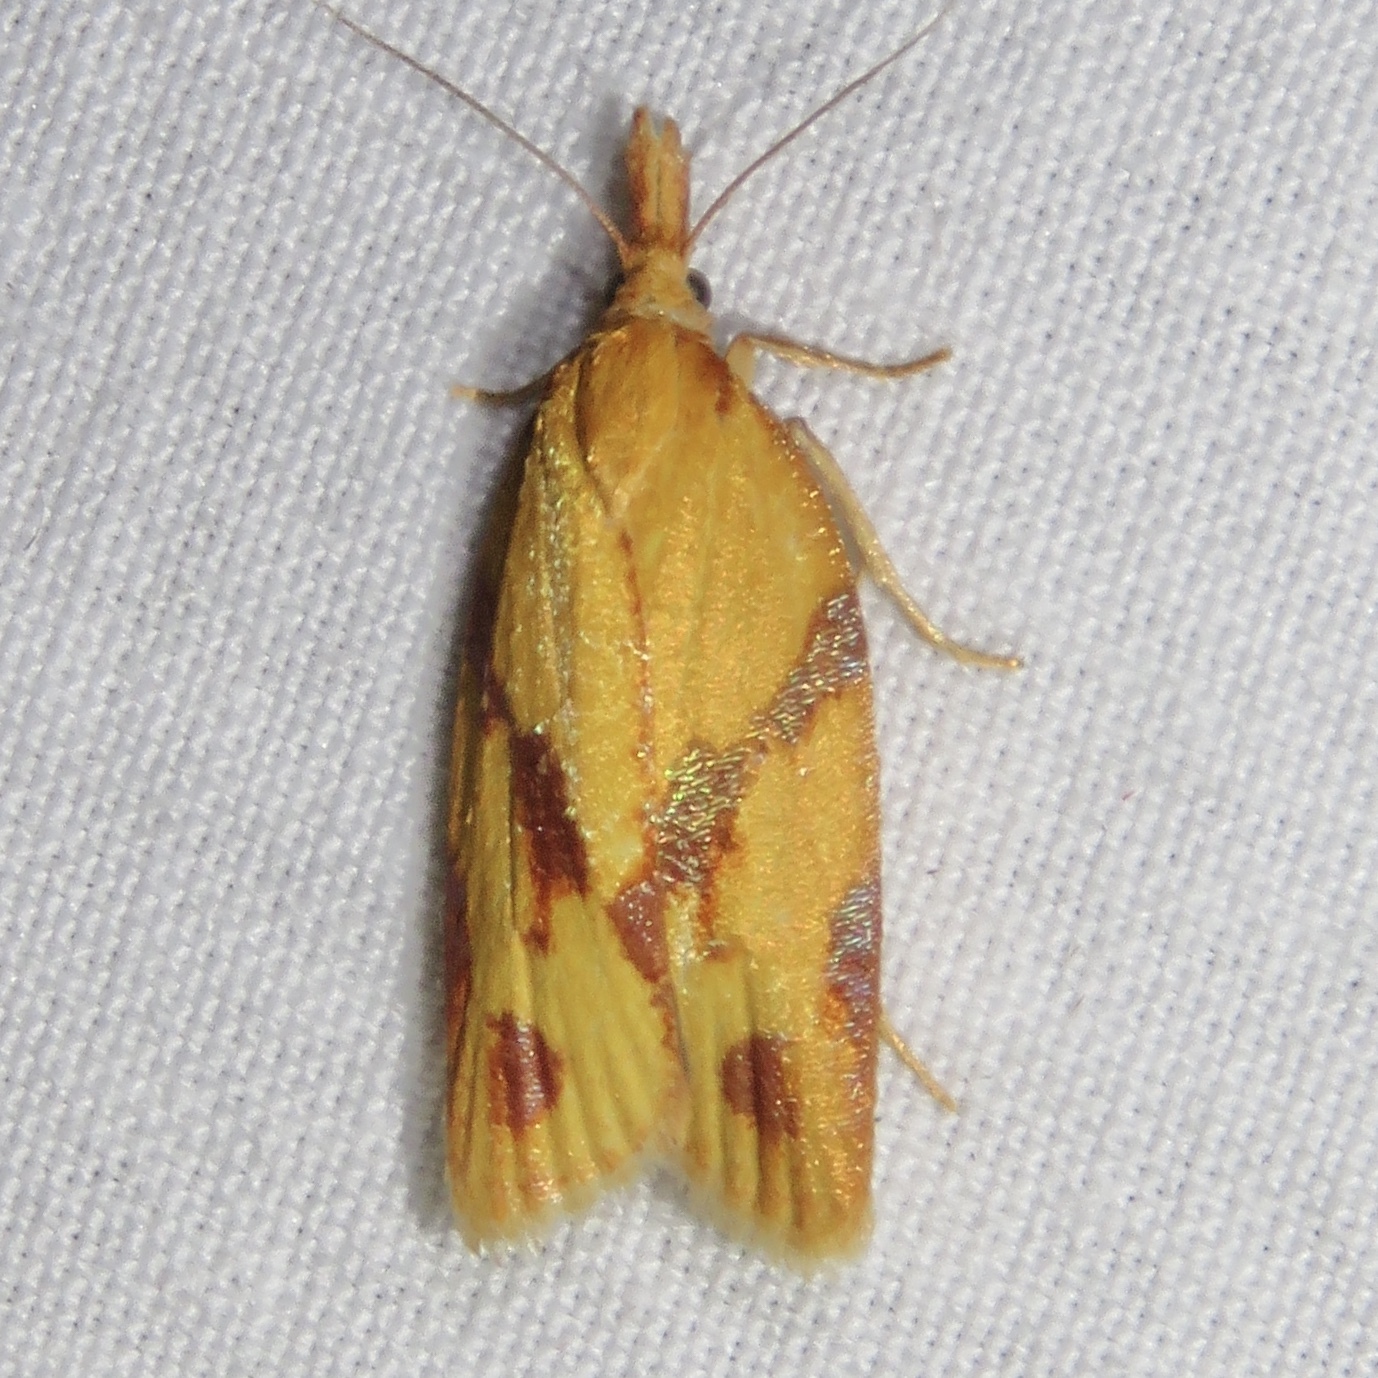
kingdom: Animalia
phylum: Arthropoda
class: Insecta
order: Lepidoptera
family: Tortricidae
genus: Sparganothis
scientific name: Sparganothis unifasciana
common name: One-lined sparganothis moth
